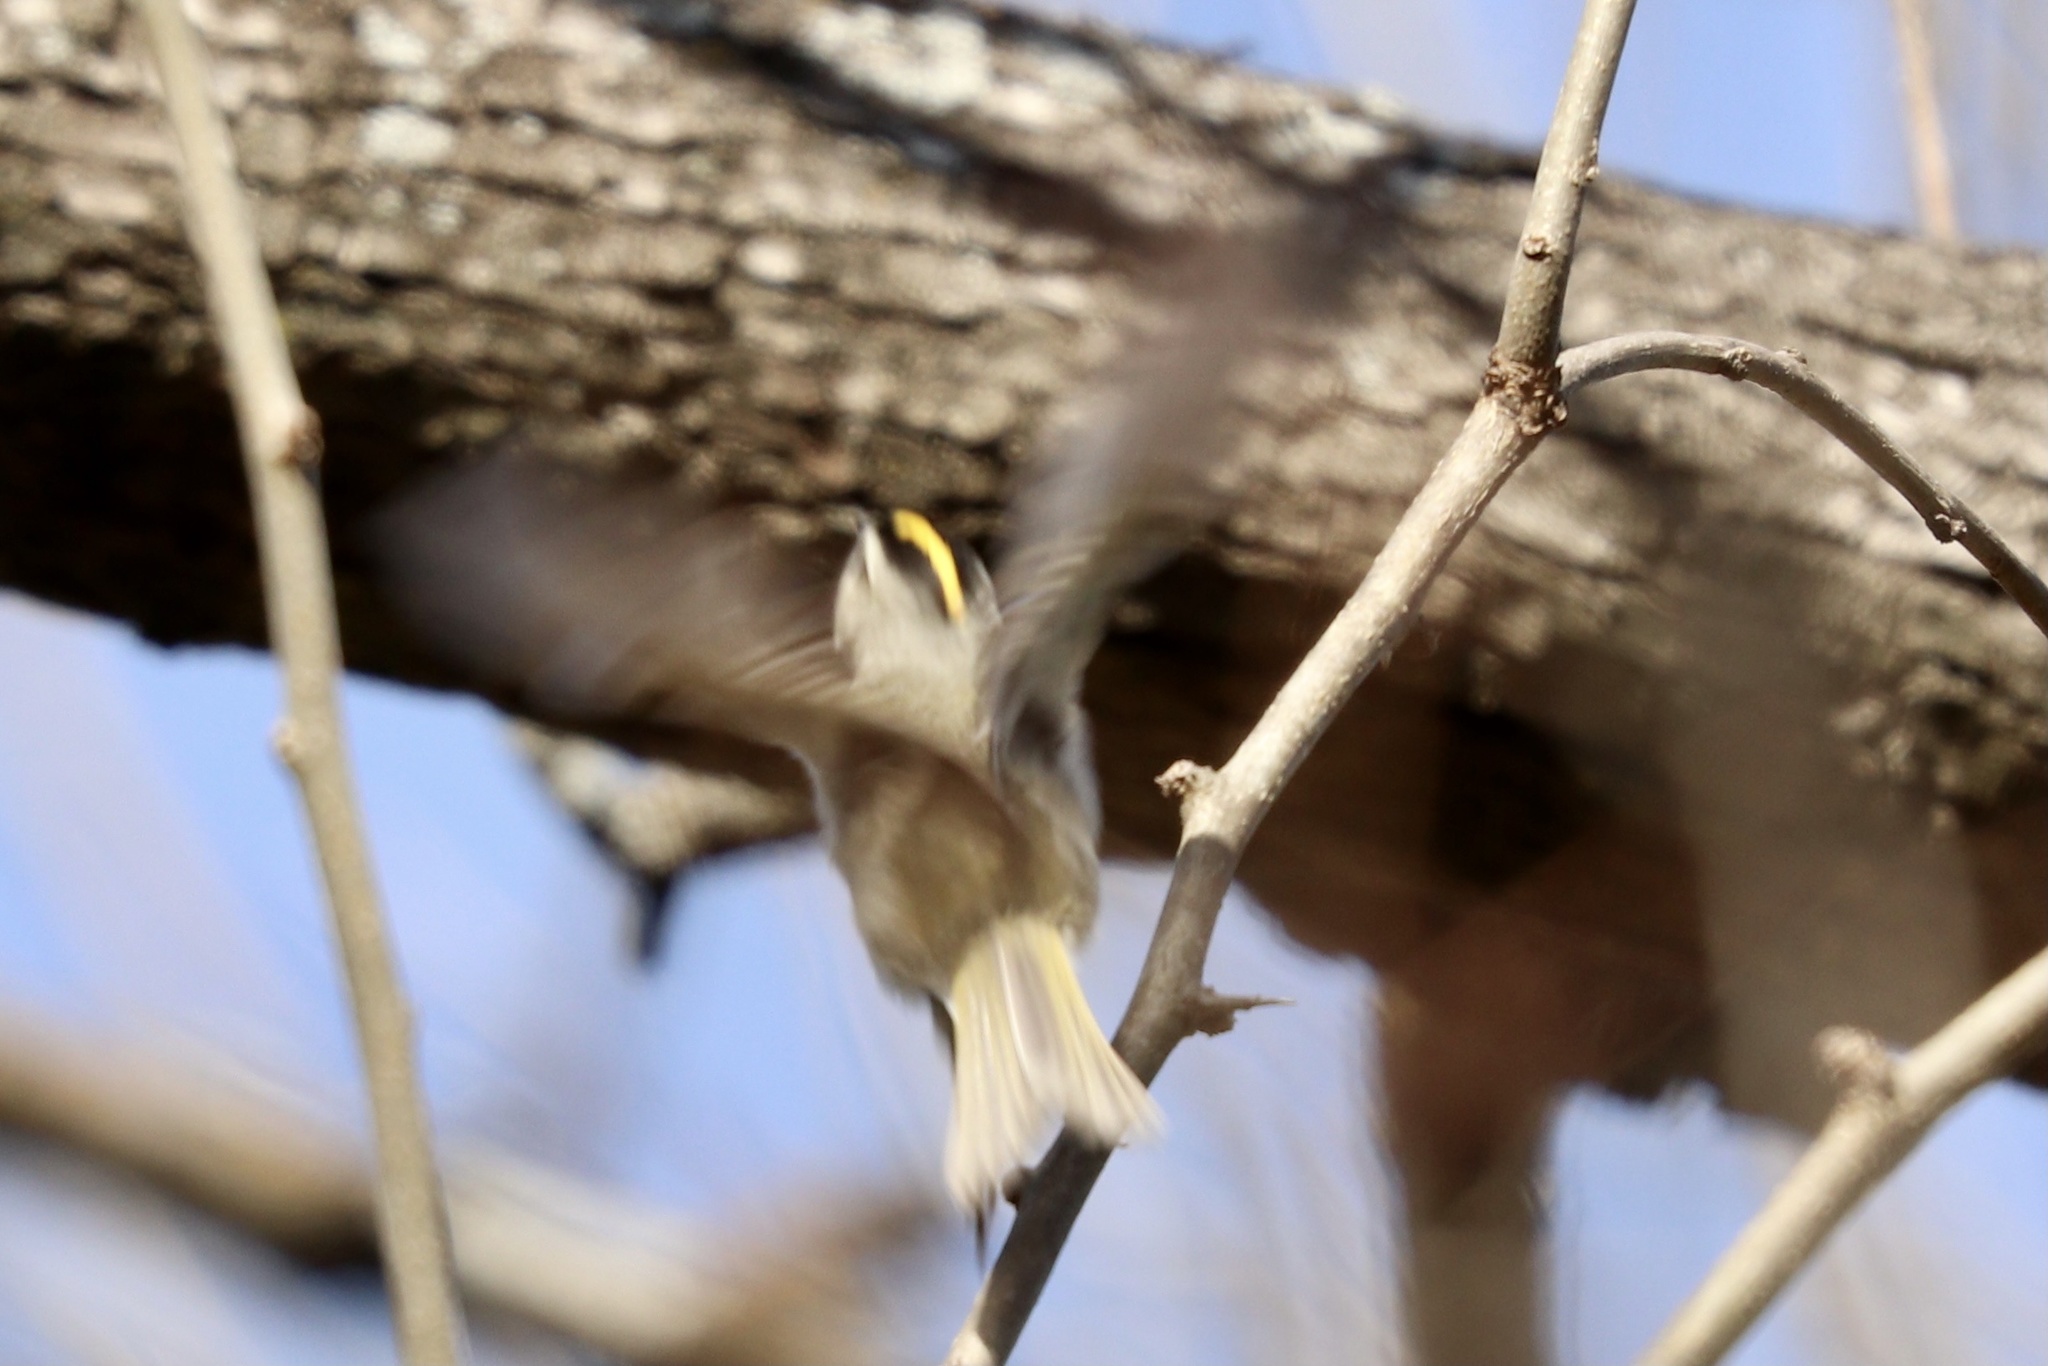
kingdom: Animalia
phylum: Chordata
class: Aves
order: Passeriformes
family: Regulidae
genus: Regulus
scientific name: Regulus satrapa
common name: Golden-crowned kinglet
